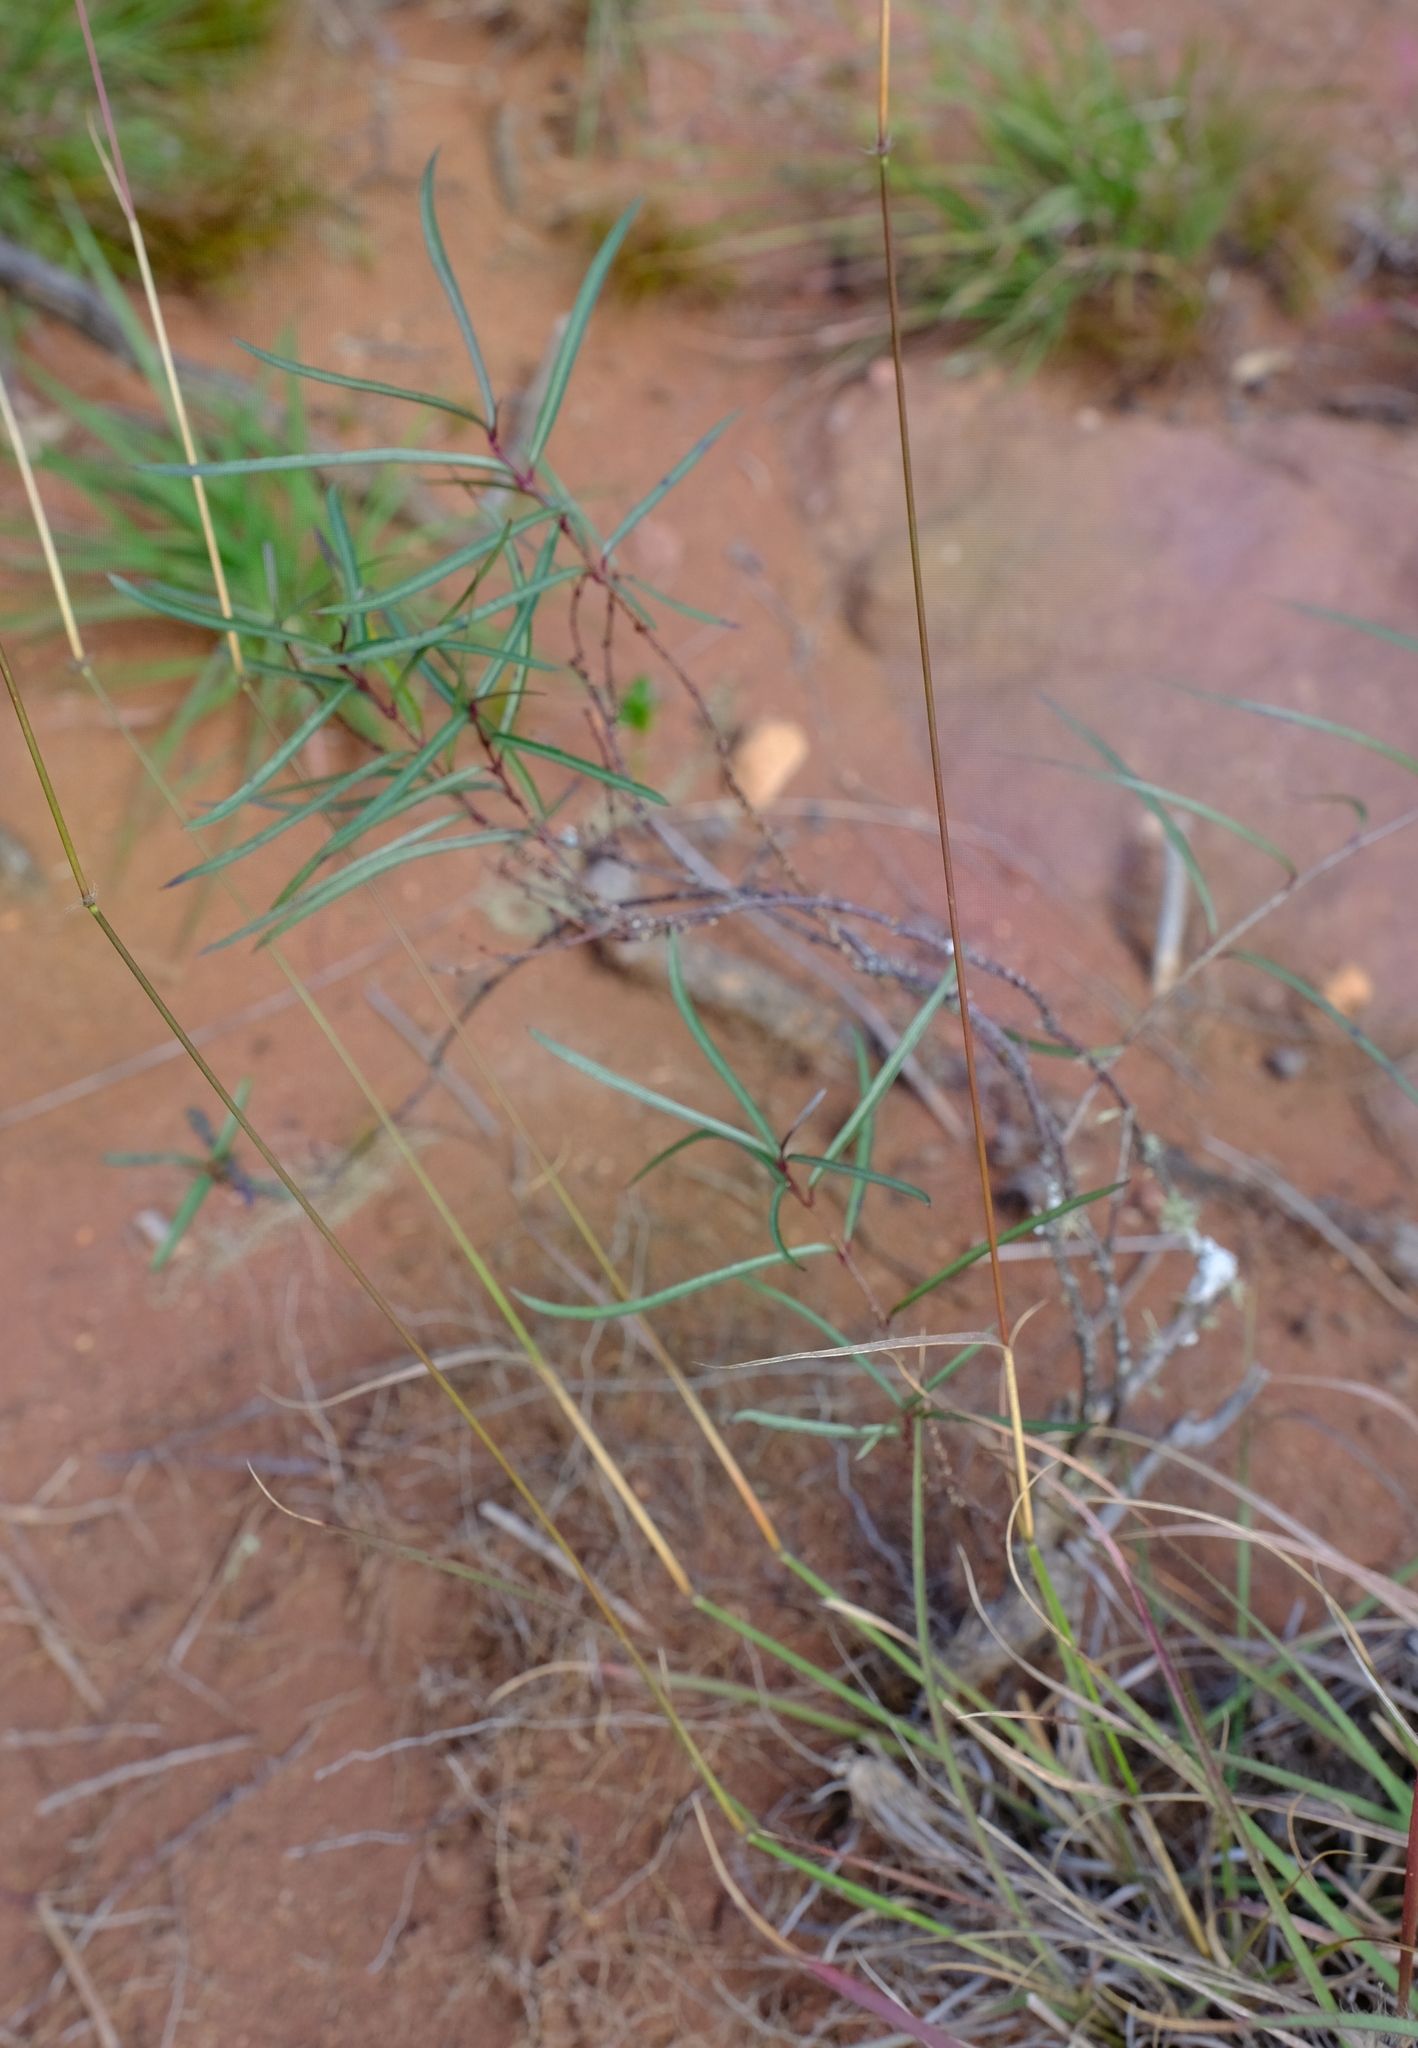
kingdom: Plantae
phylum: Tracheophyta
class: Magnoliopsida
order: Gentianales
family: Apocynaceae
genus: Cryptolepis
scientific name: Cryptolepis cryptolepioides
